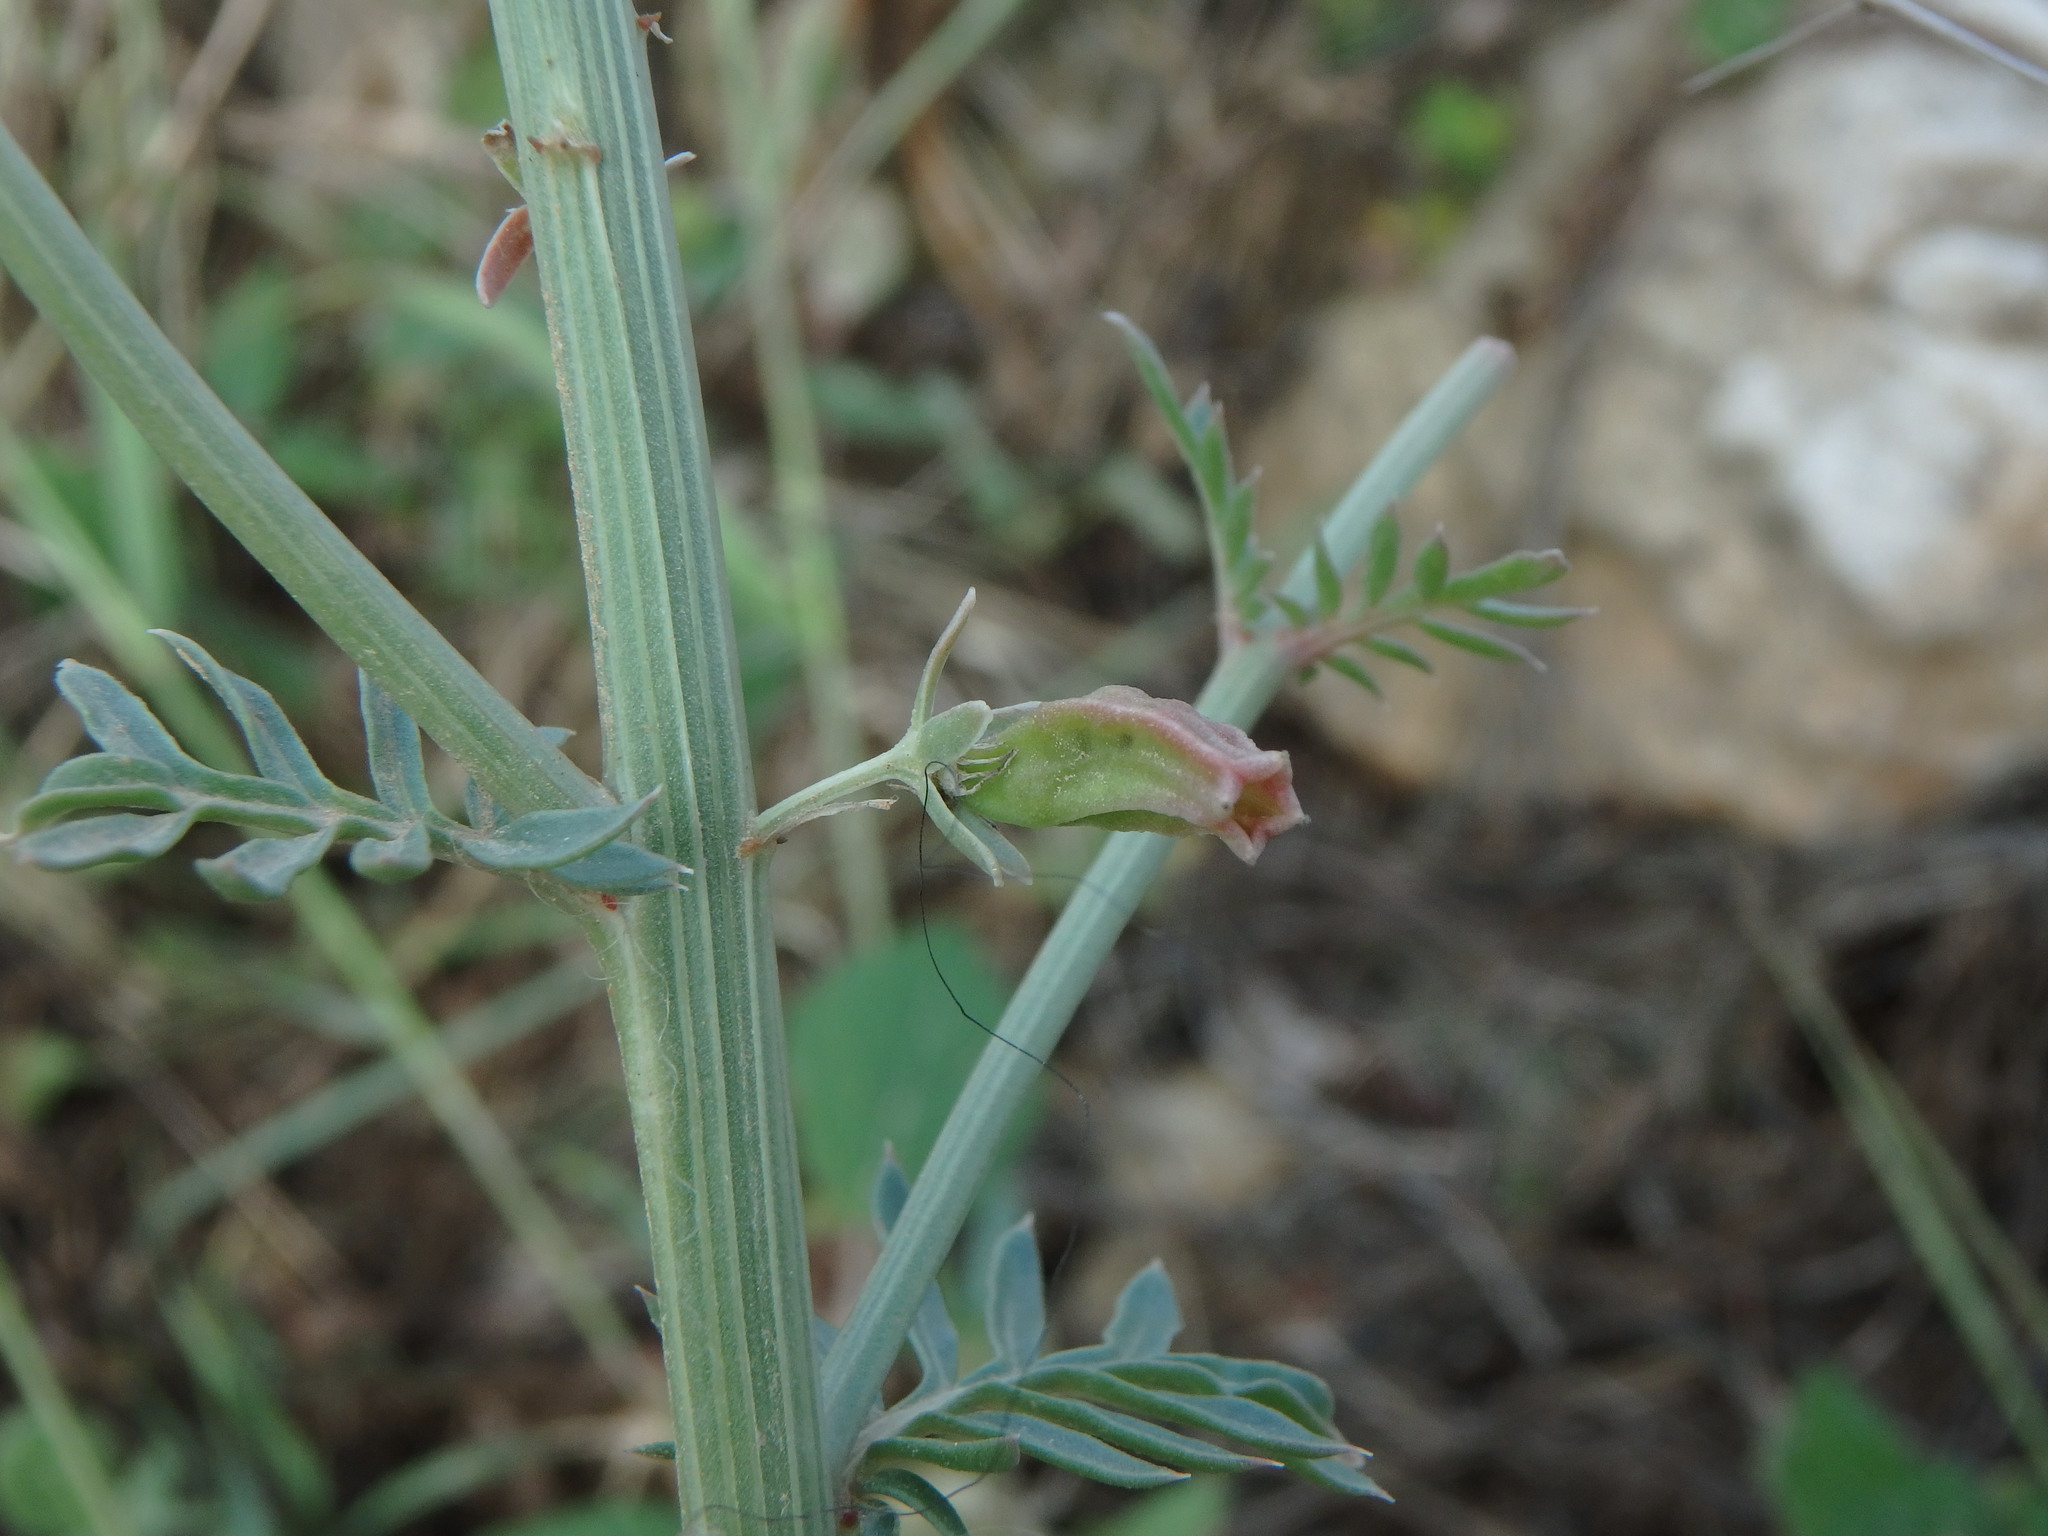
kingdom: Plantae
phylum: Tracheophyta
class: Magnoliopsida
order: Brassicales
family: Resedaceae
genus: Reseda
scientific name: Reseda alba
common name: White mignonette
